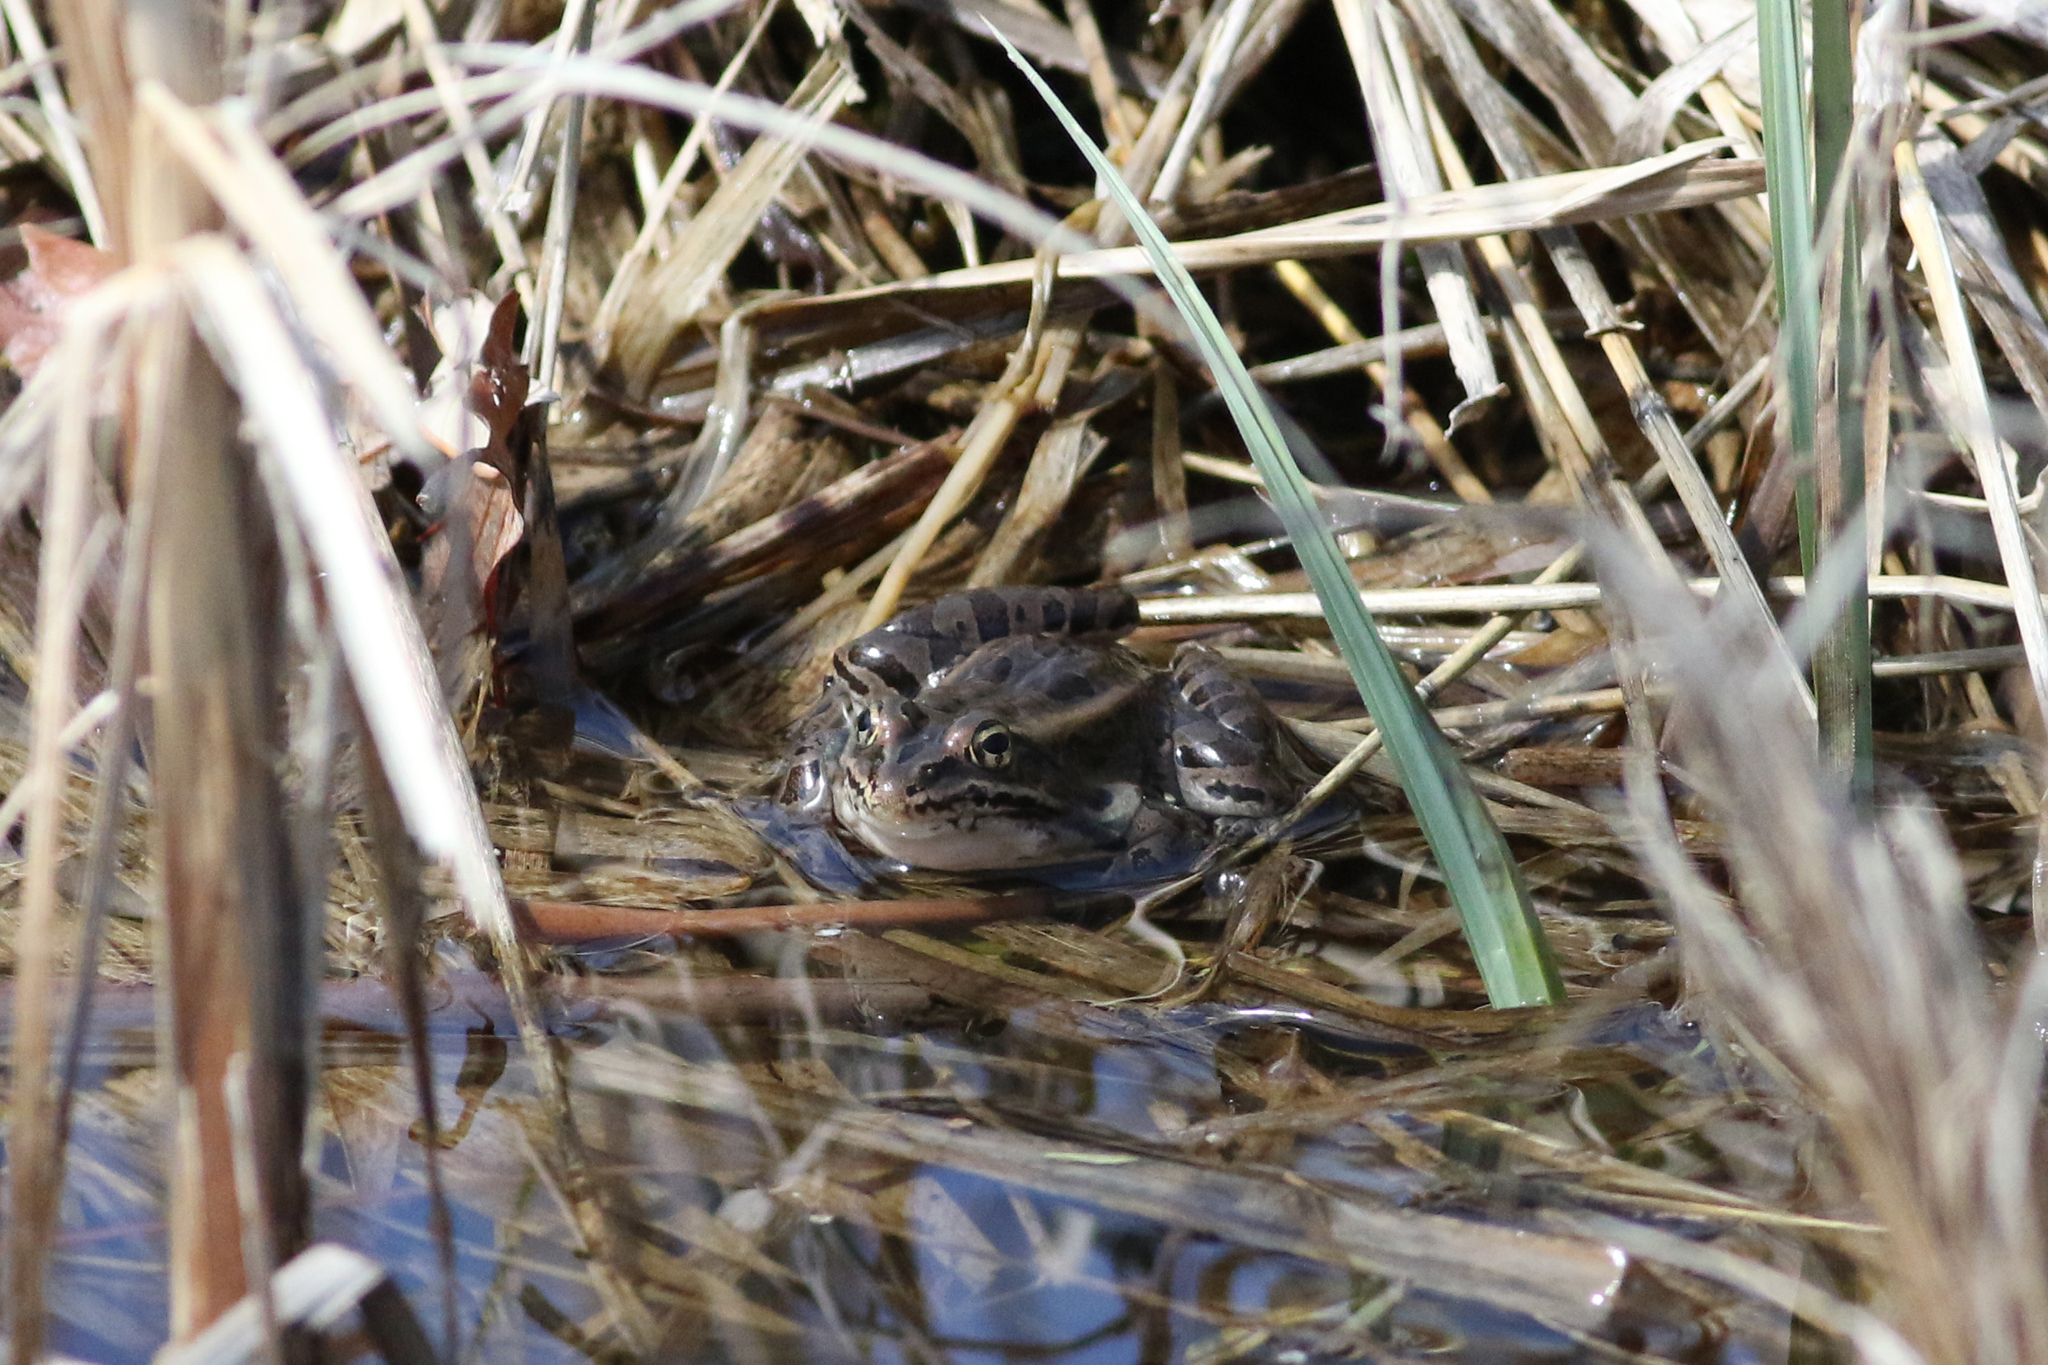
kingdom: Animalia
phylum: Chordata
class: Amphibia
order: Anura
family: Ranidae
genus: Lithobates
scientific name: Lithobates pipiens
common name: Northern leopard frog
